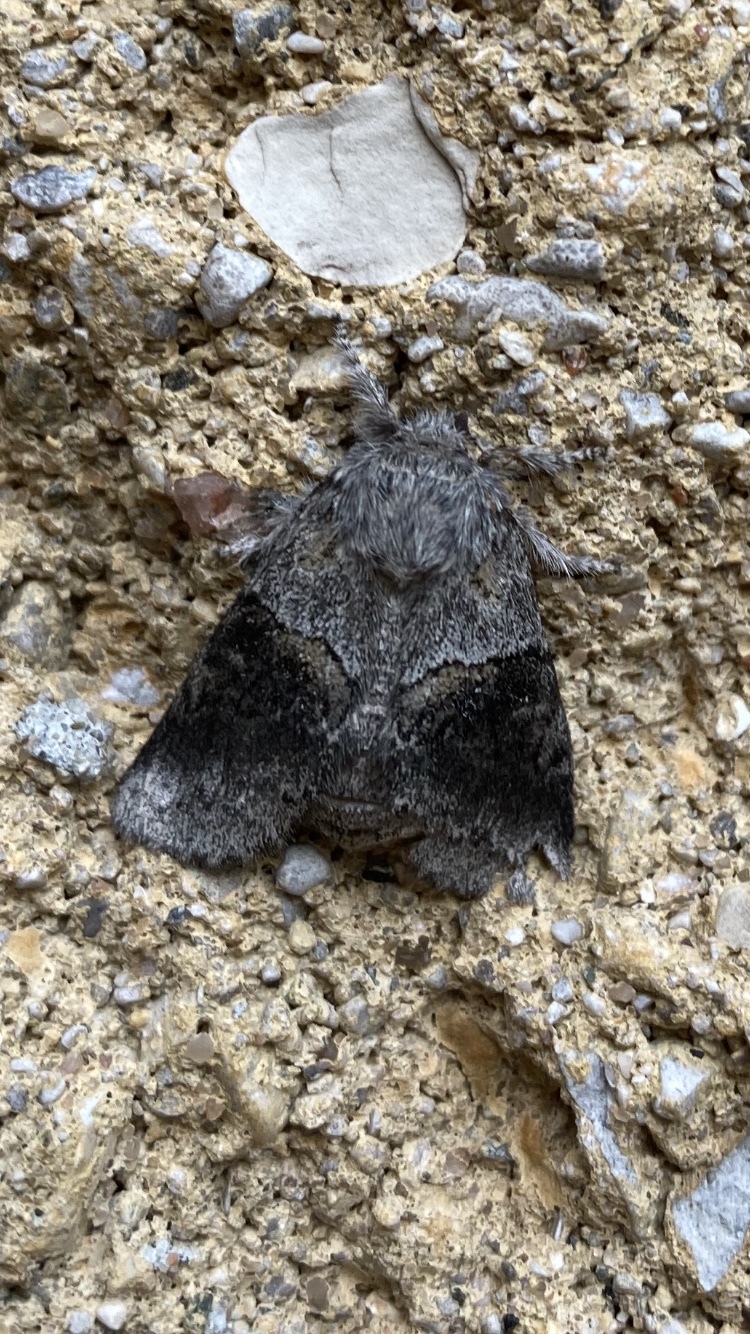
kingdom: Animalia
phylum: Arthropoda
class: Insecta
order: Lepidoptera
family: Notodontidae
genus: Gluphisia
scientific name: Gluphisia septentrionis
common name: Common gluphisia
